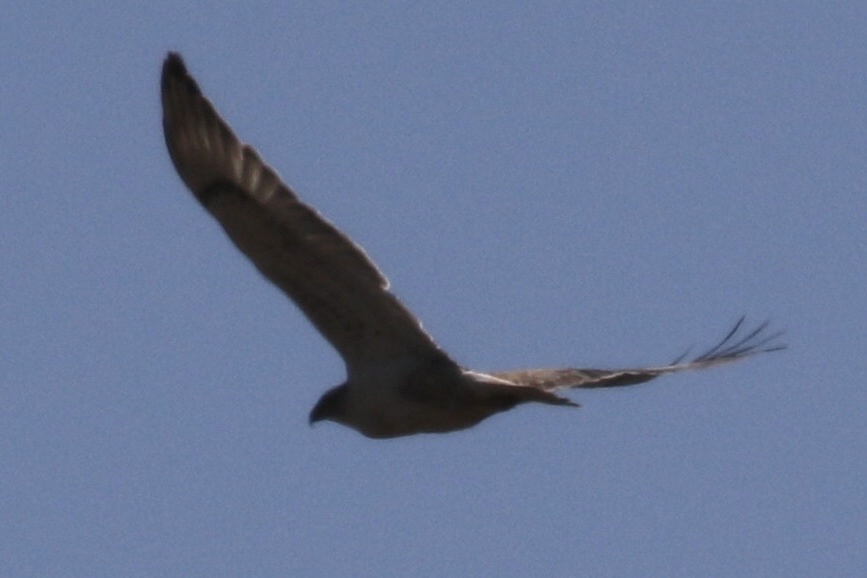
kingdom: Animalia
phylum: Chordata
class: Aves
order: Accipitriformes
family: Accipitridae
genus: Buteo
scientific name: Buteo regalis
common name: Ferruginous hawk
